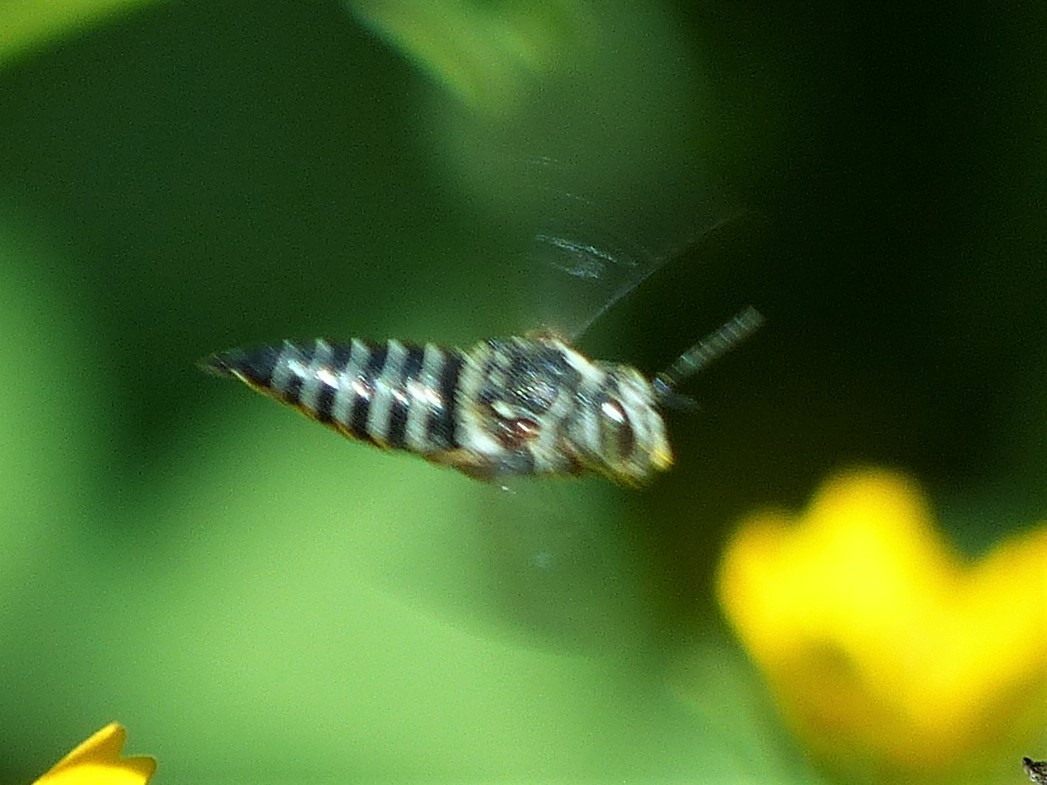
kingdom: Animalia
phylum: Arthropoda
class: Insecta
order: Hymenoptera
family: Megachilidae
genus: Coelioxys
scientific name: Coelioxys
